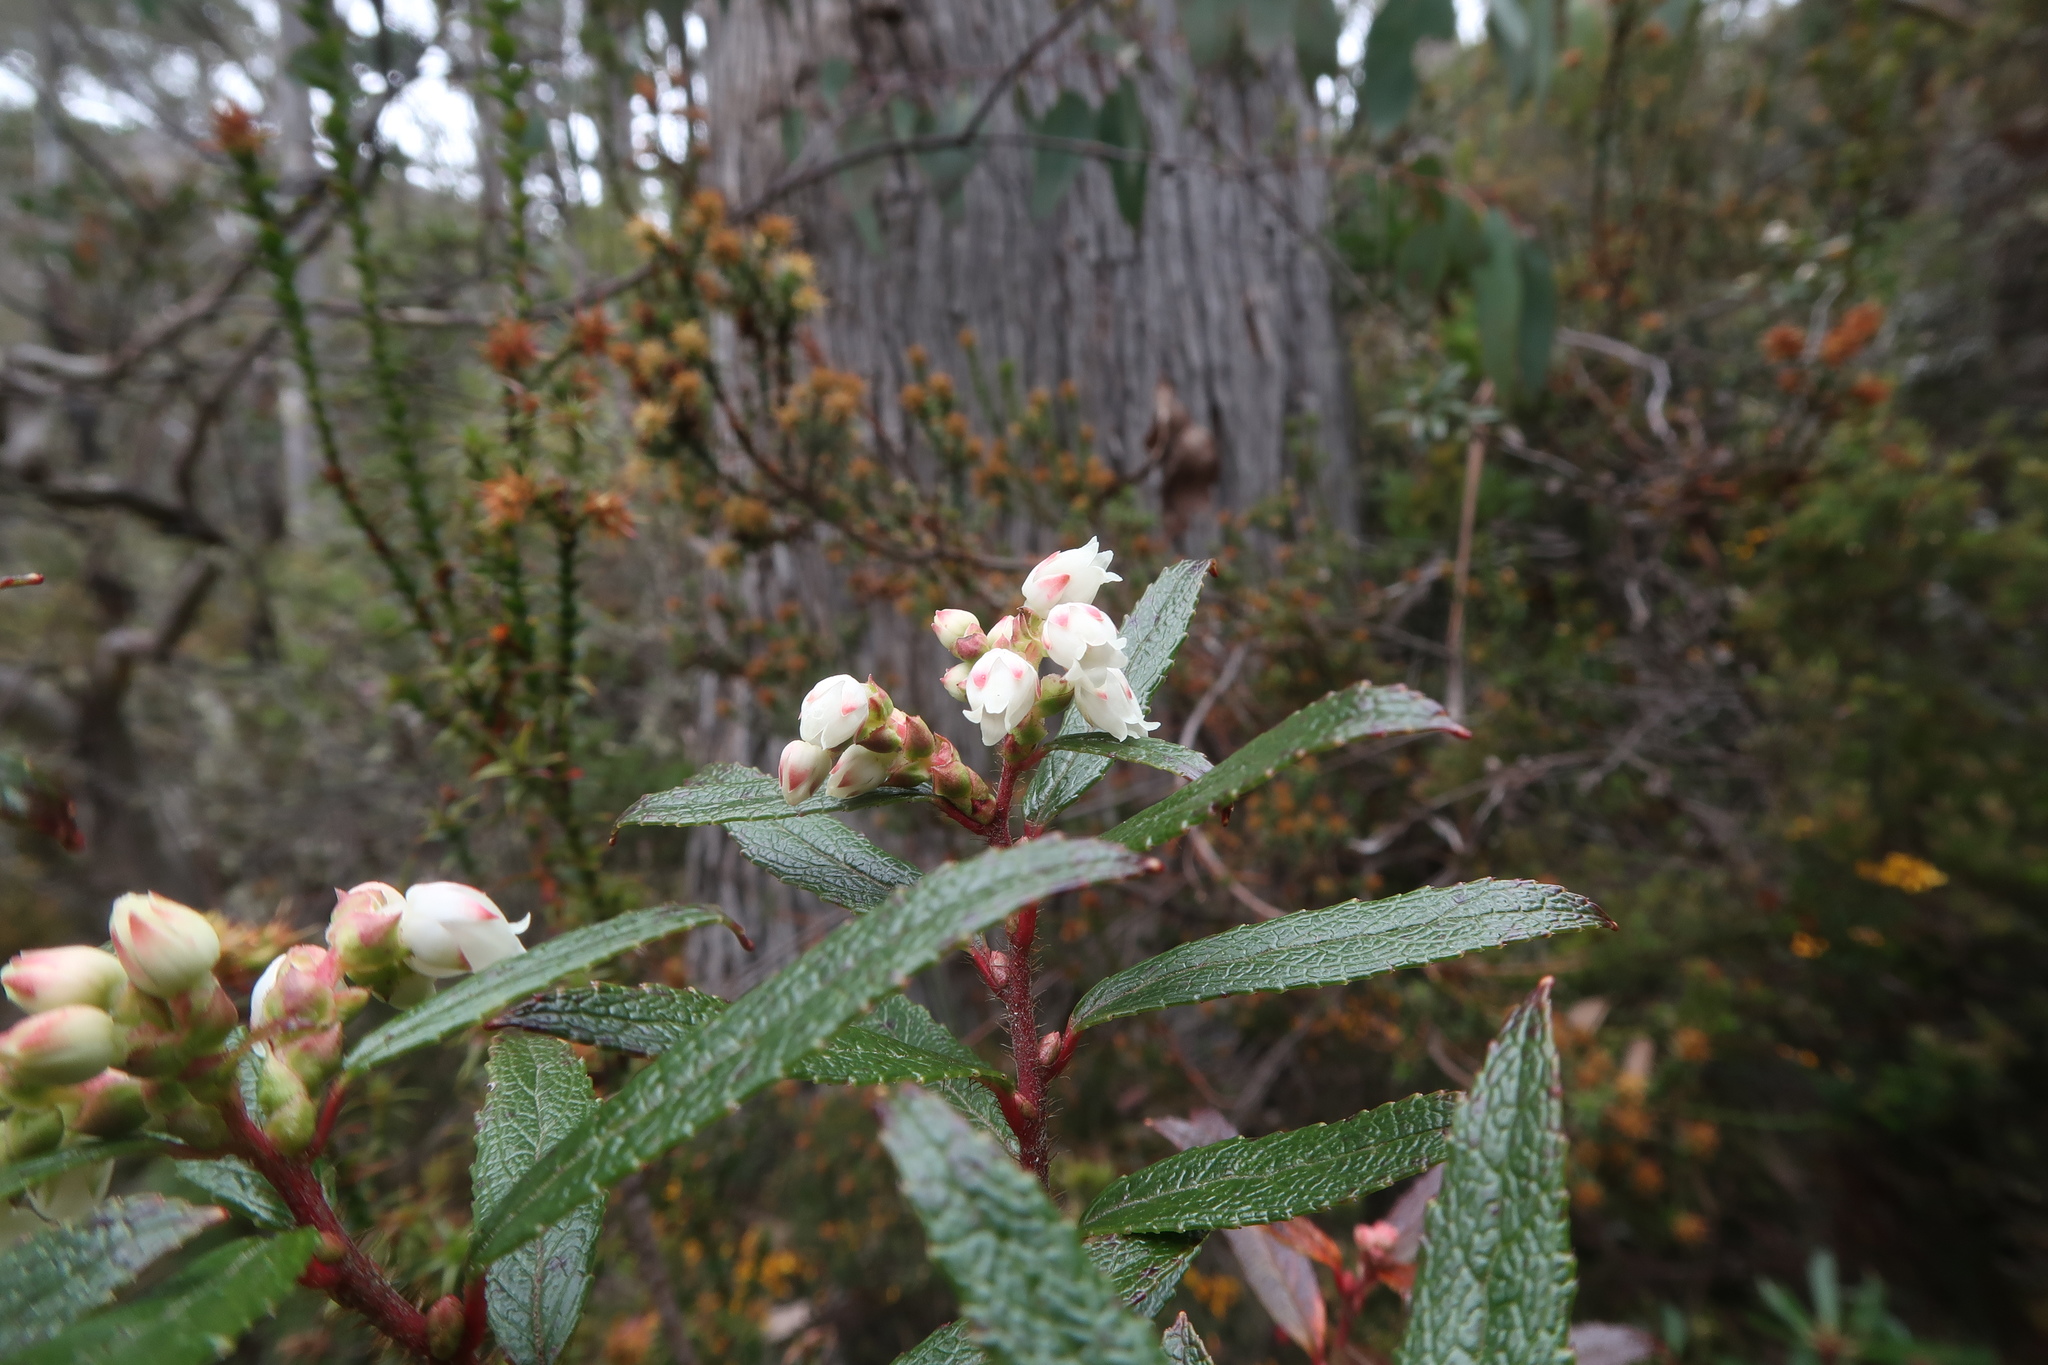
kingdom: Plantae
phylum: Tracheophyta
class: Magnoliopsida
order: Ericales
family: Ericaceae
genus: Gaultheria
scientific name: Gaultheria hispida
